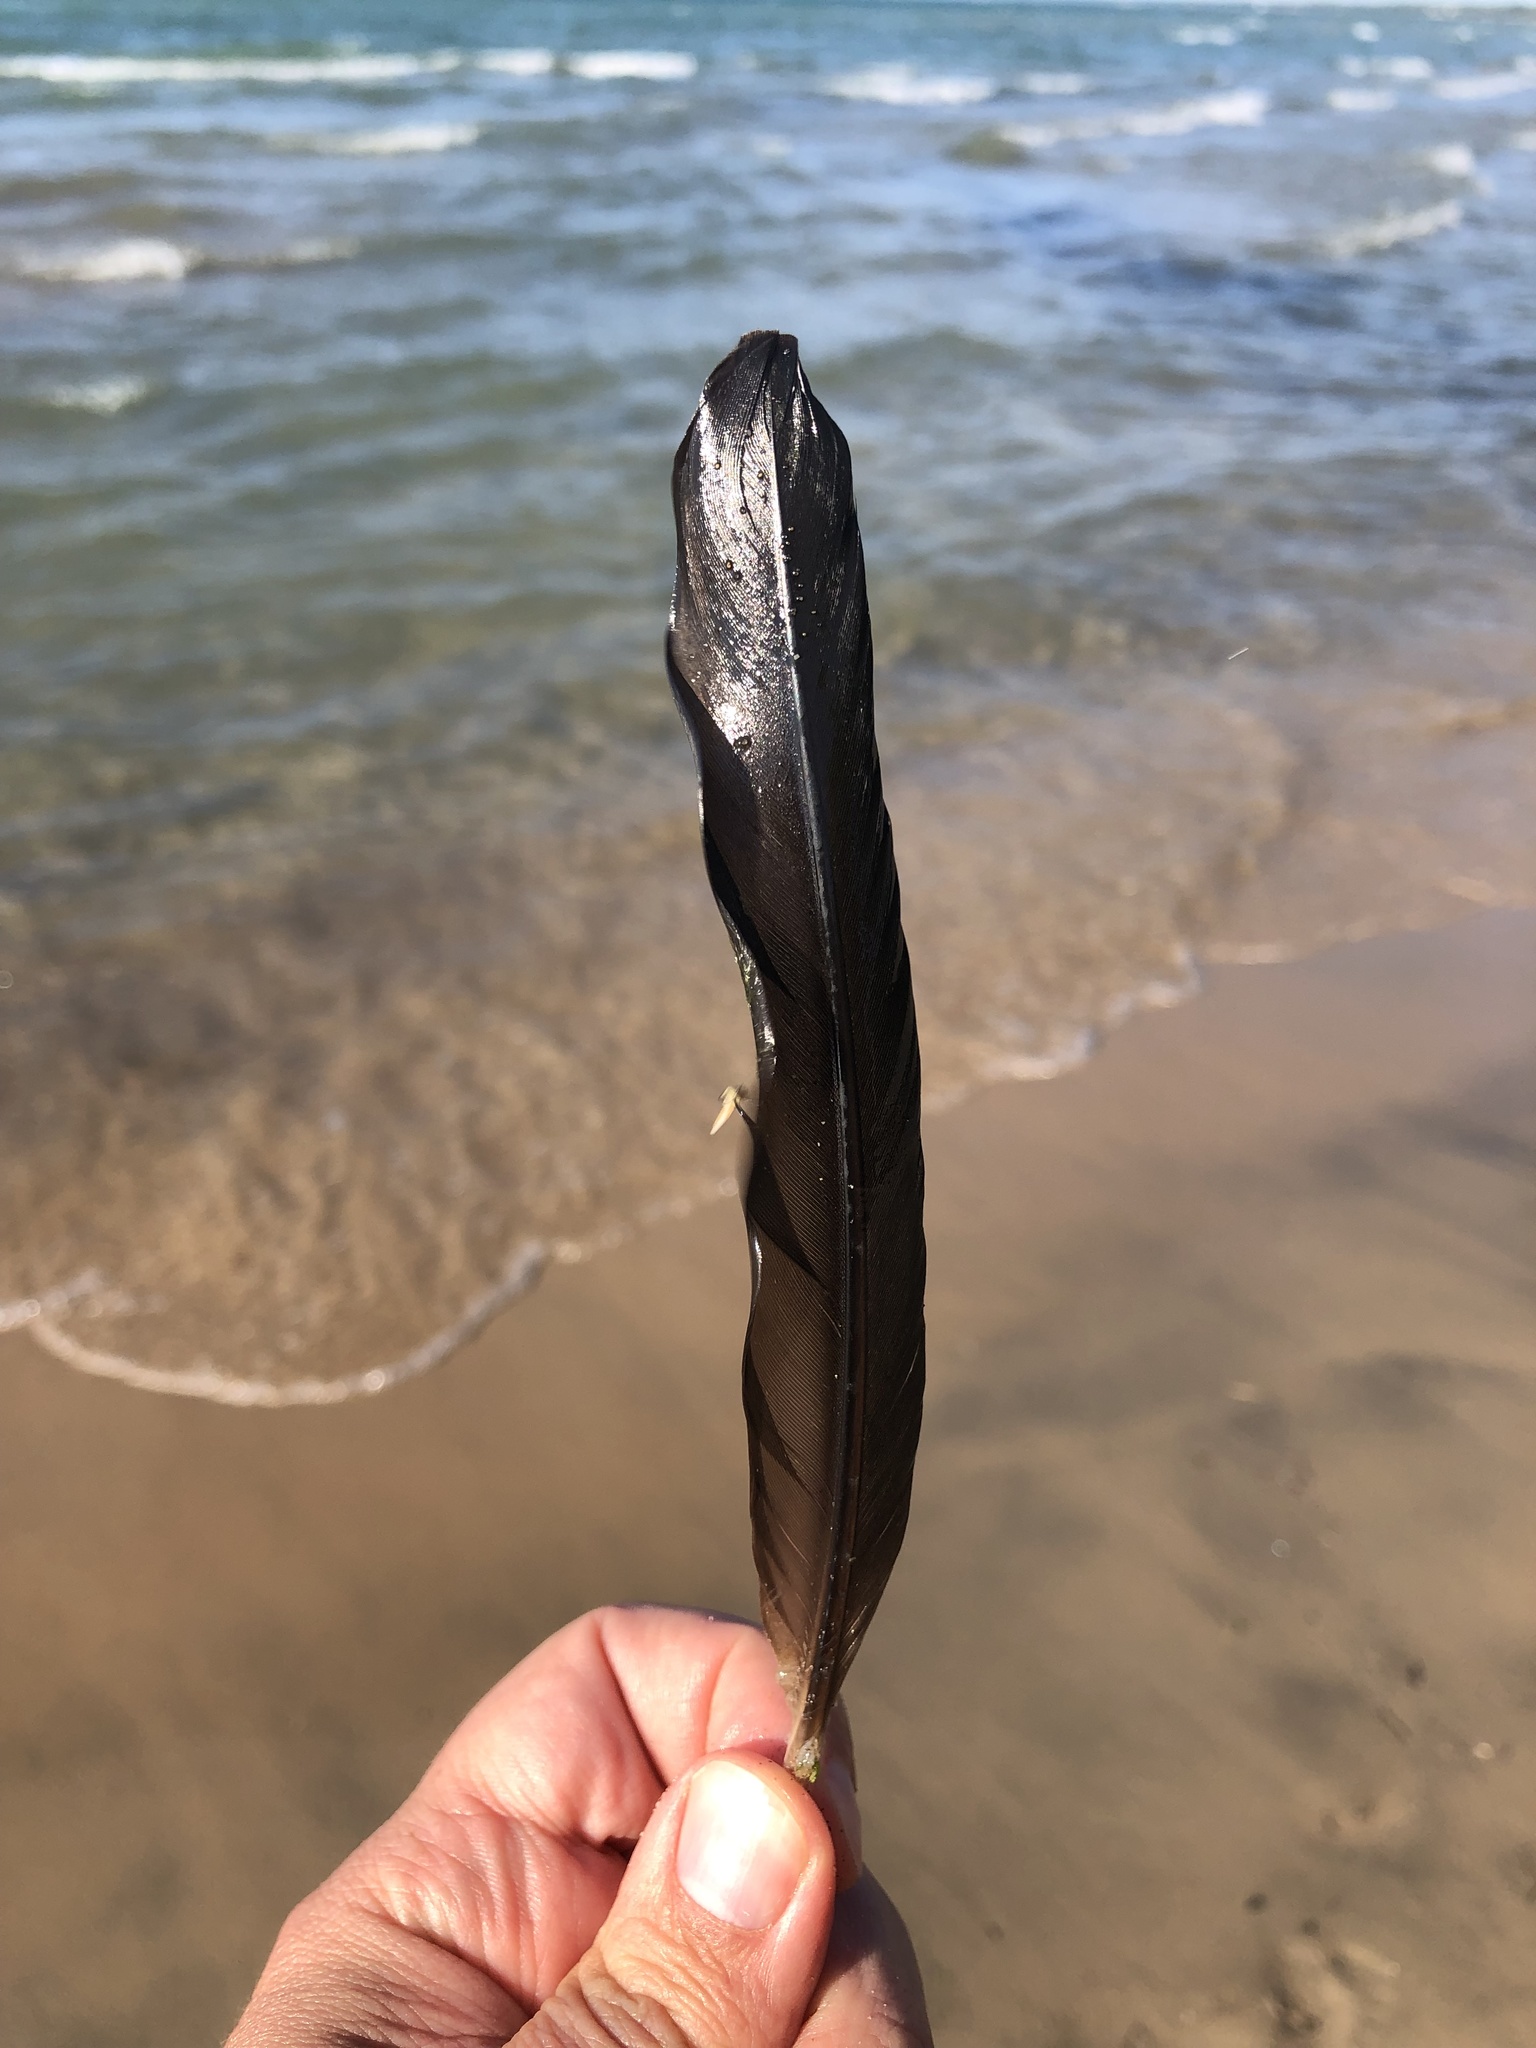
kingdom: Animalia
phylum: Chordata
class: Aves
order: Suliformes
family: Phalacrocoracidae
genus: Phalacrocorax
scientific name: Phalacrocorax auritus
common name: Double-crested cormorant
